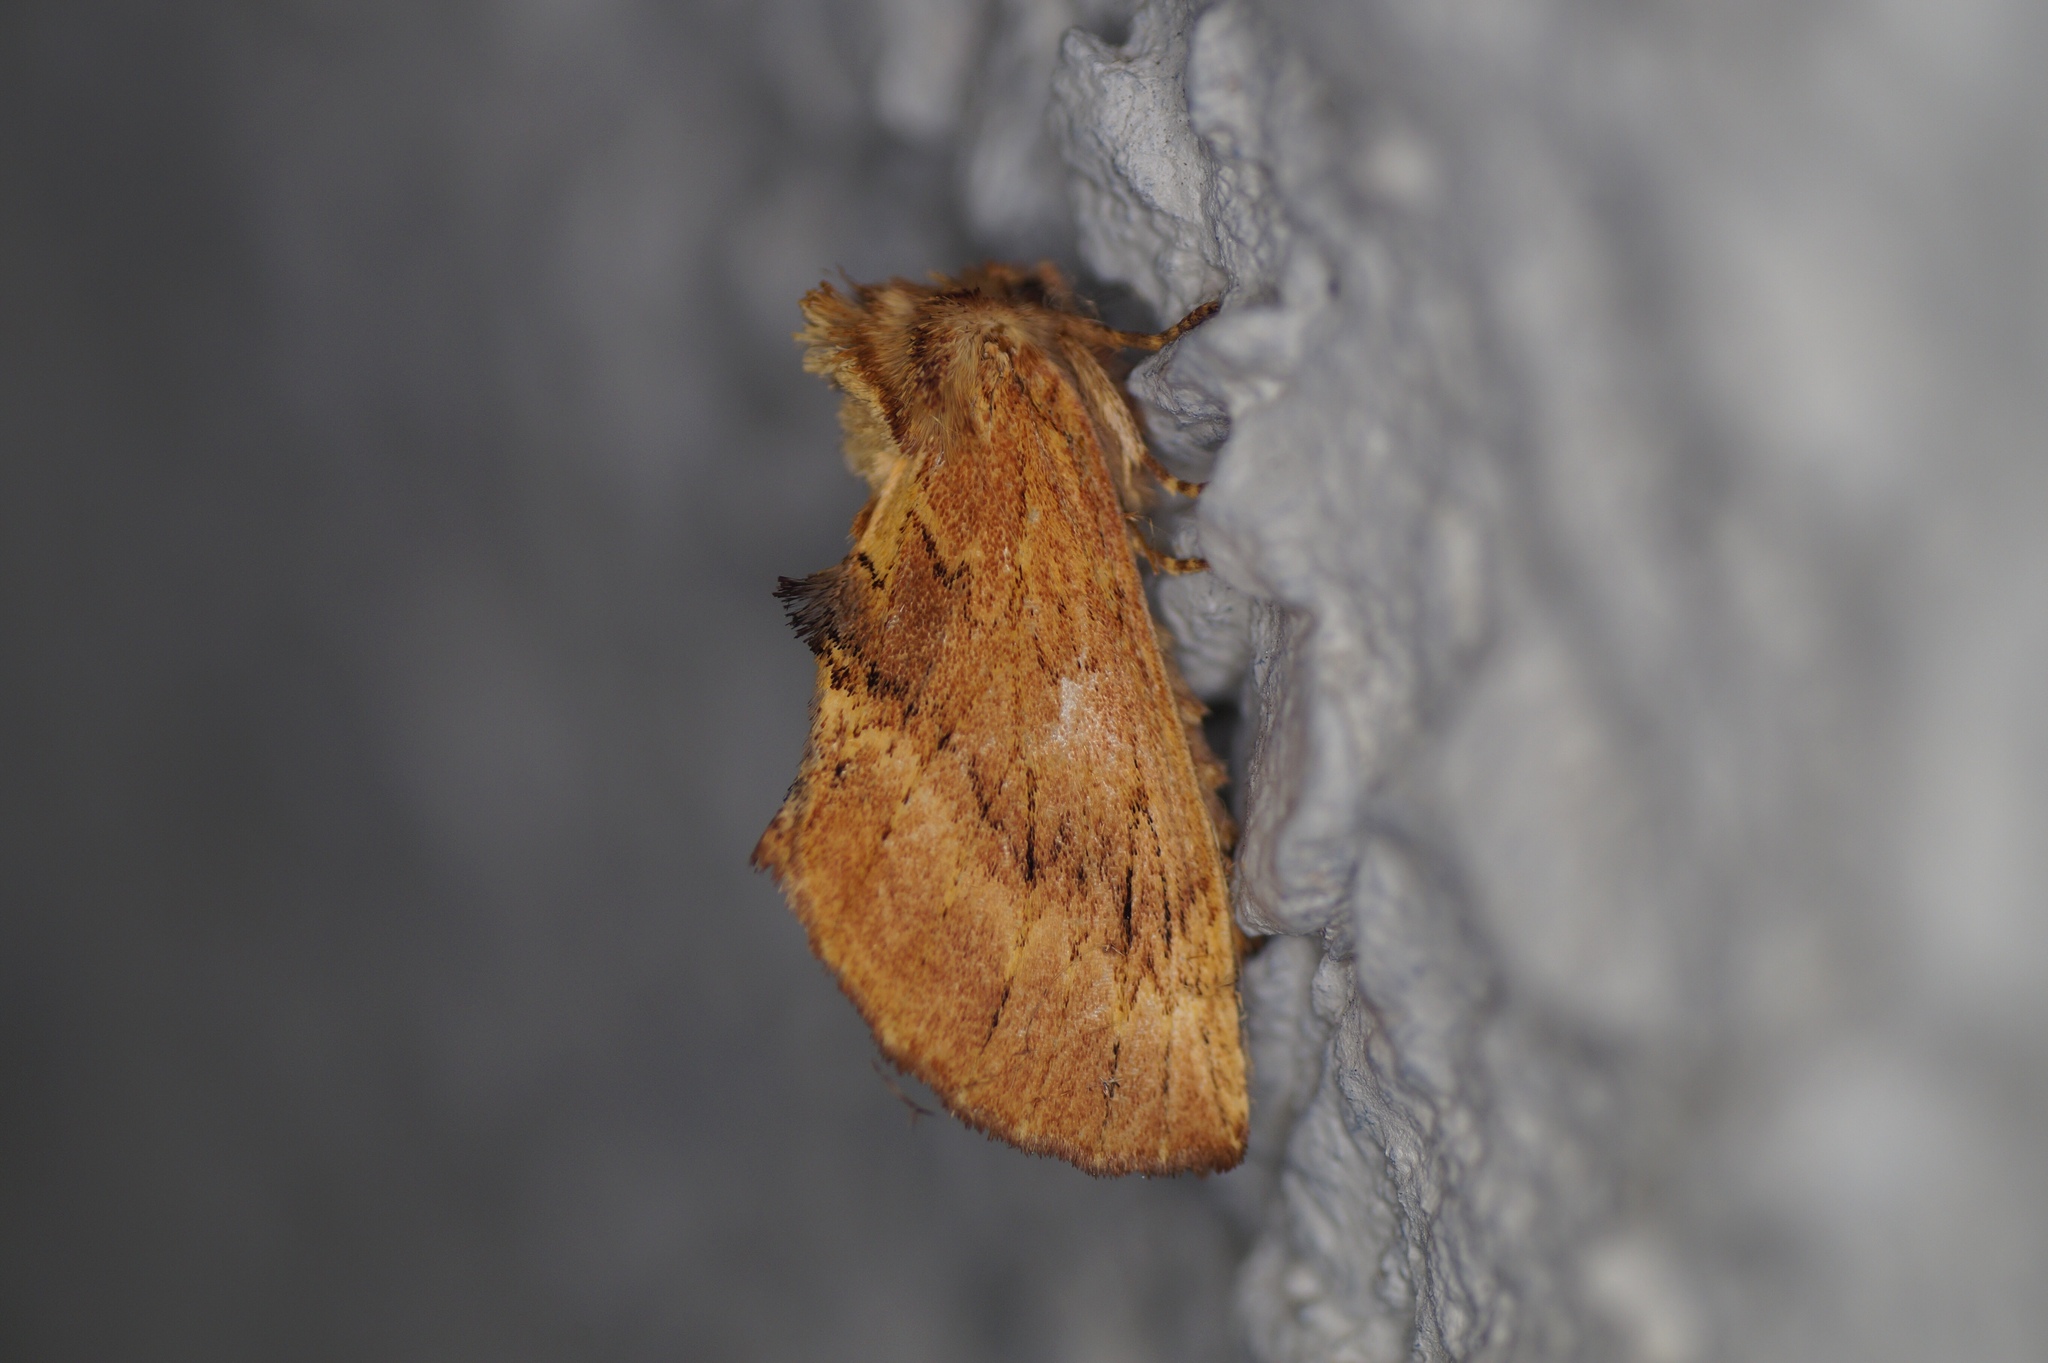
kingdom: Animalia
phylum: Arthropoda
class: Insecta
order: Lepidoptera
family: Notodontidae
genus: Ptilodon
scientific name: Ptilodon capucina
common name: Coxcomb prominent
